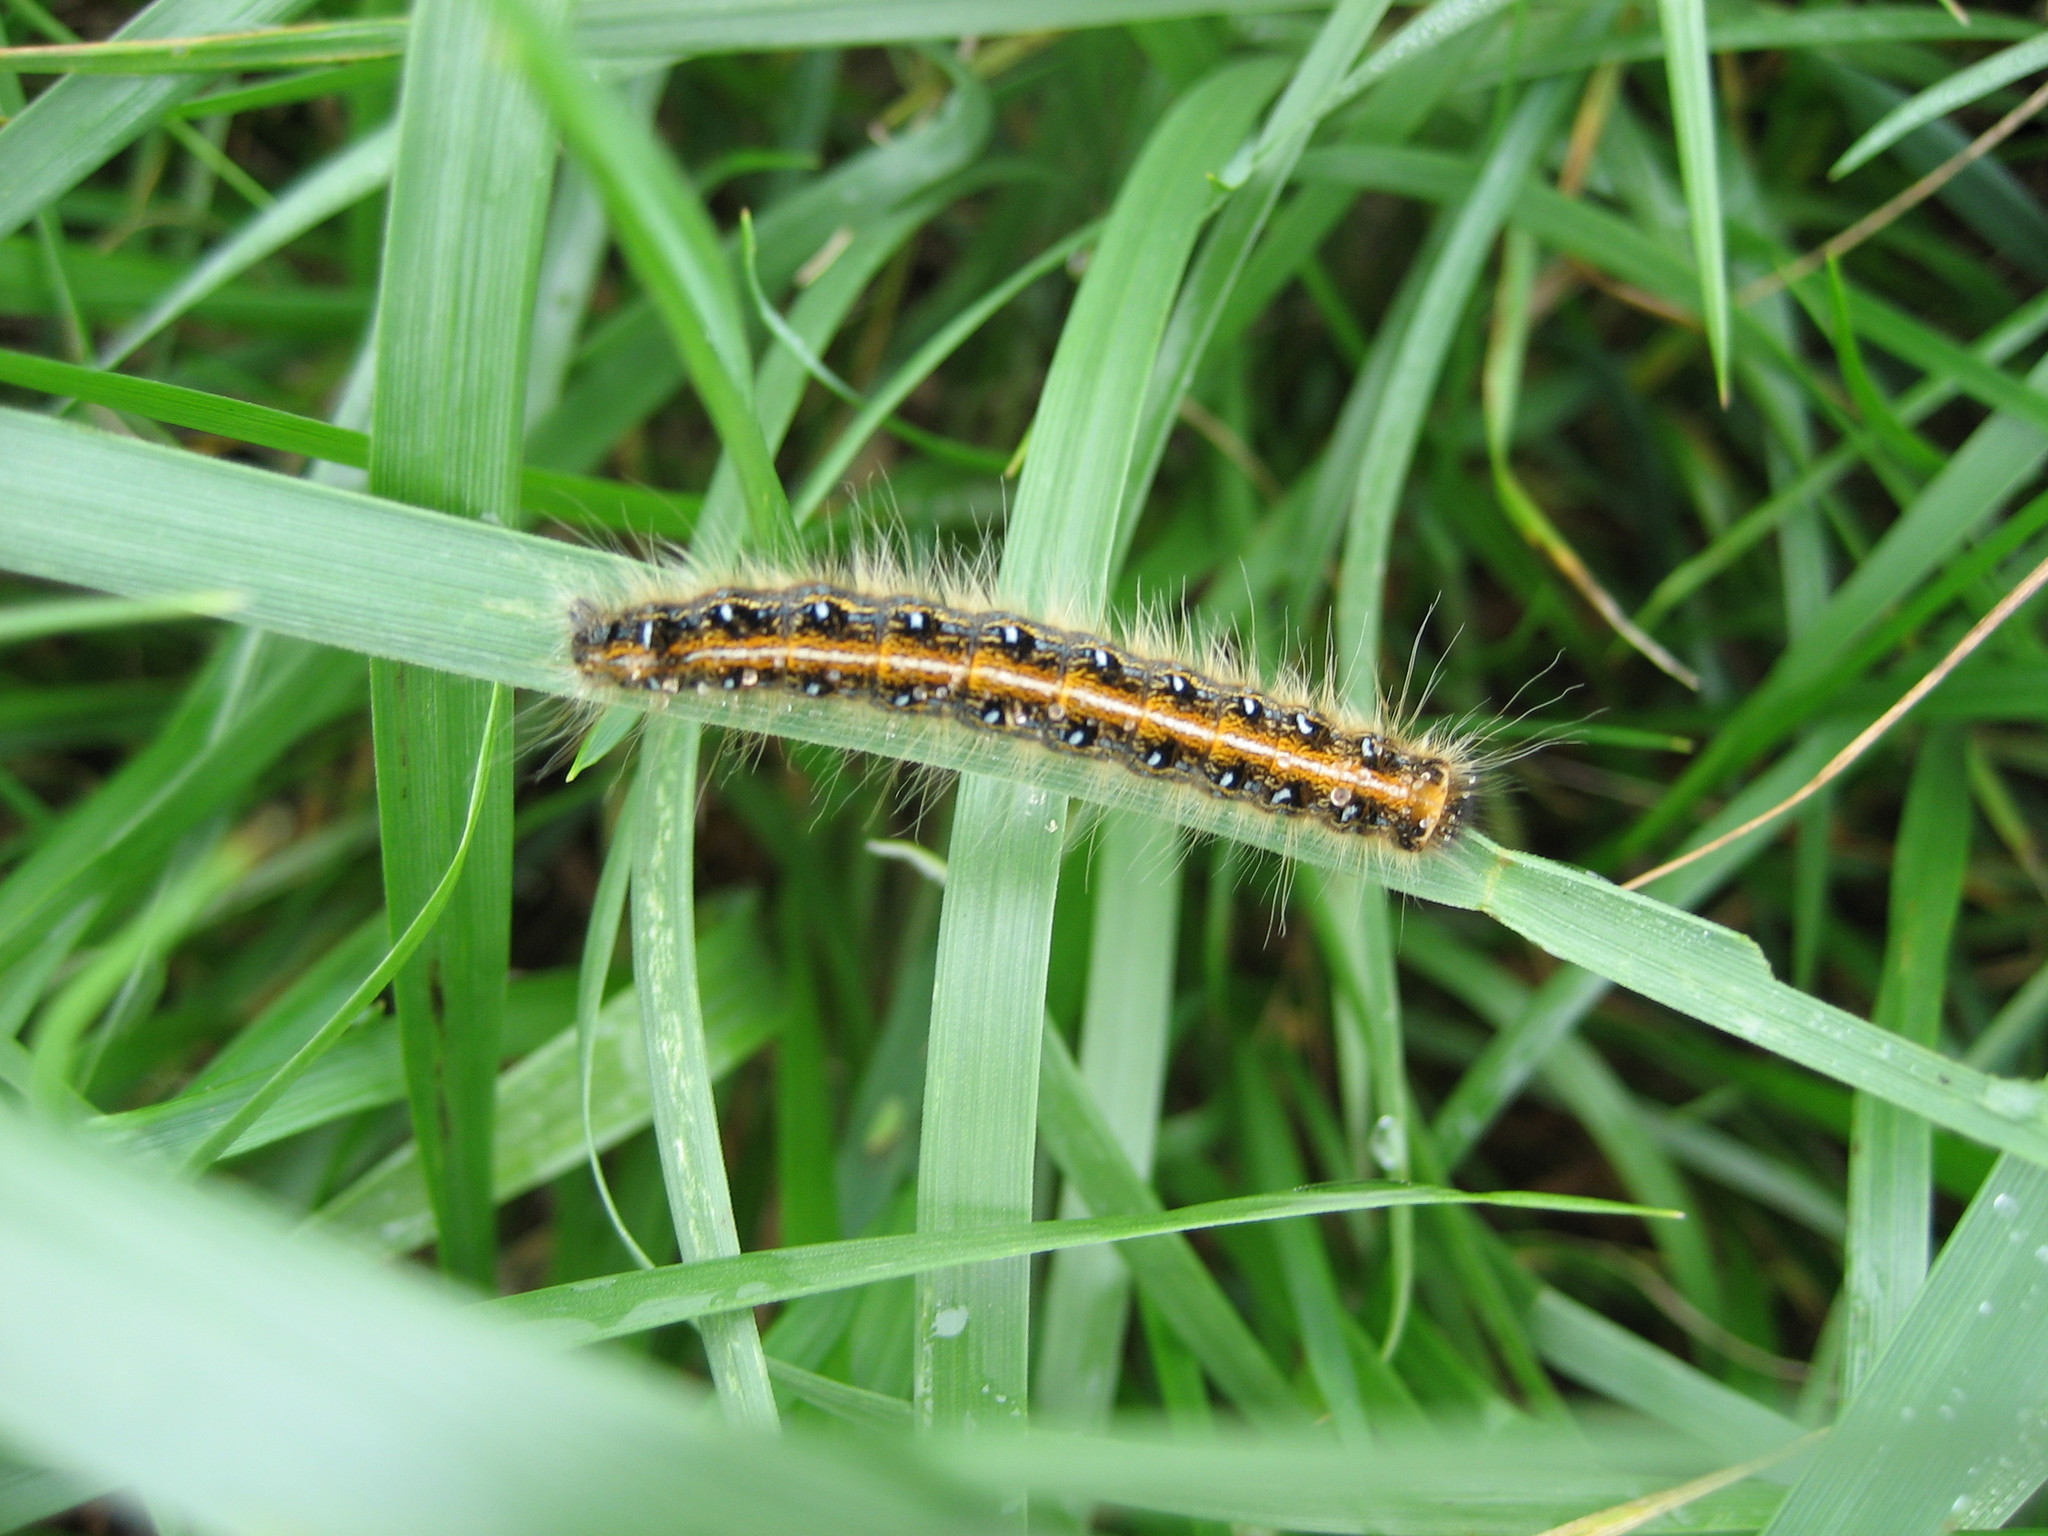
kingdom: Animalia
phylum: Arthropoda
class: Insecta
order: Lepidoptera
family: Lasiocampidae
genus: Malacosoma
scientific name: Malacosoma americana
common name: Eastern tent caterpillar moth
